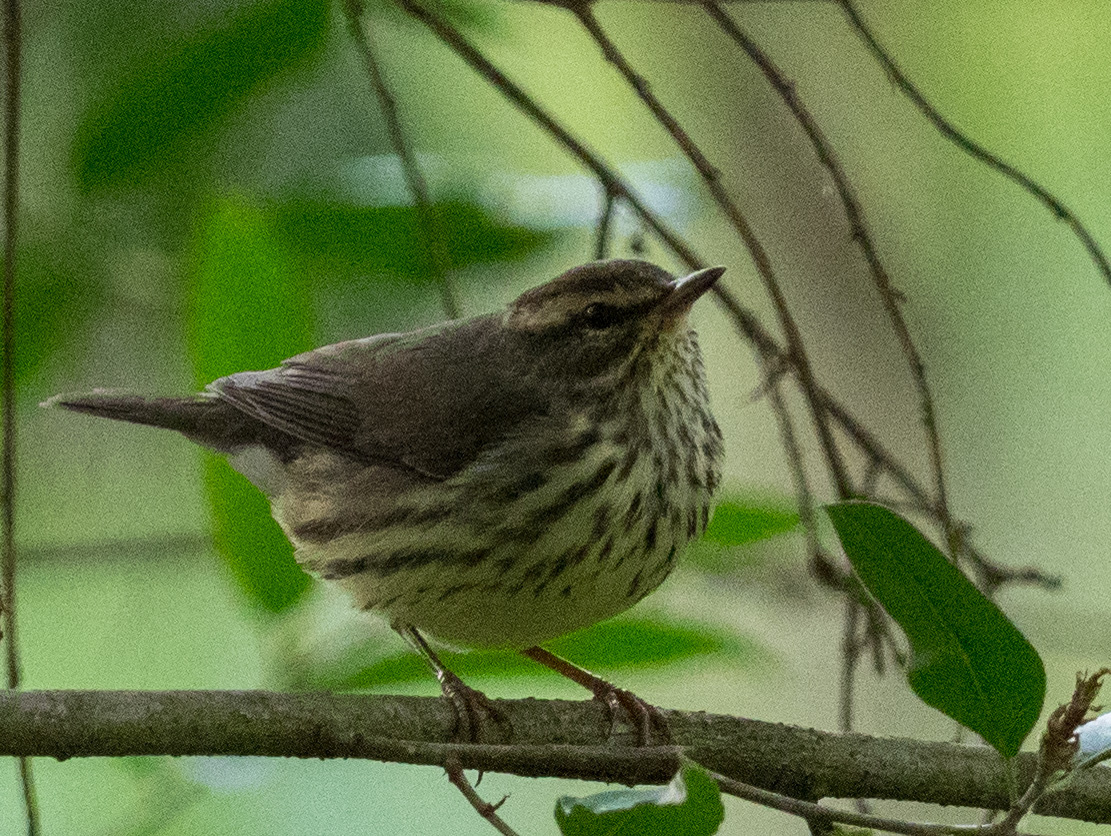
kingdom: Animalia
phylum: Chordata
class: Aves
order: Passeriformes
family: Parulidae
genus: Parkesia
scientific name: Parkesia noveboracensis
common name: Northern waterthrush
